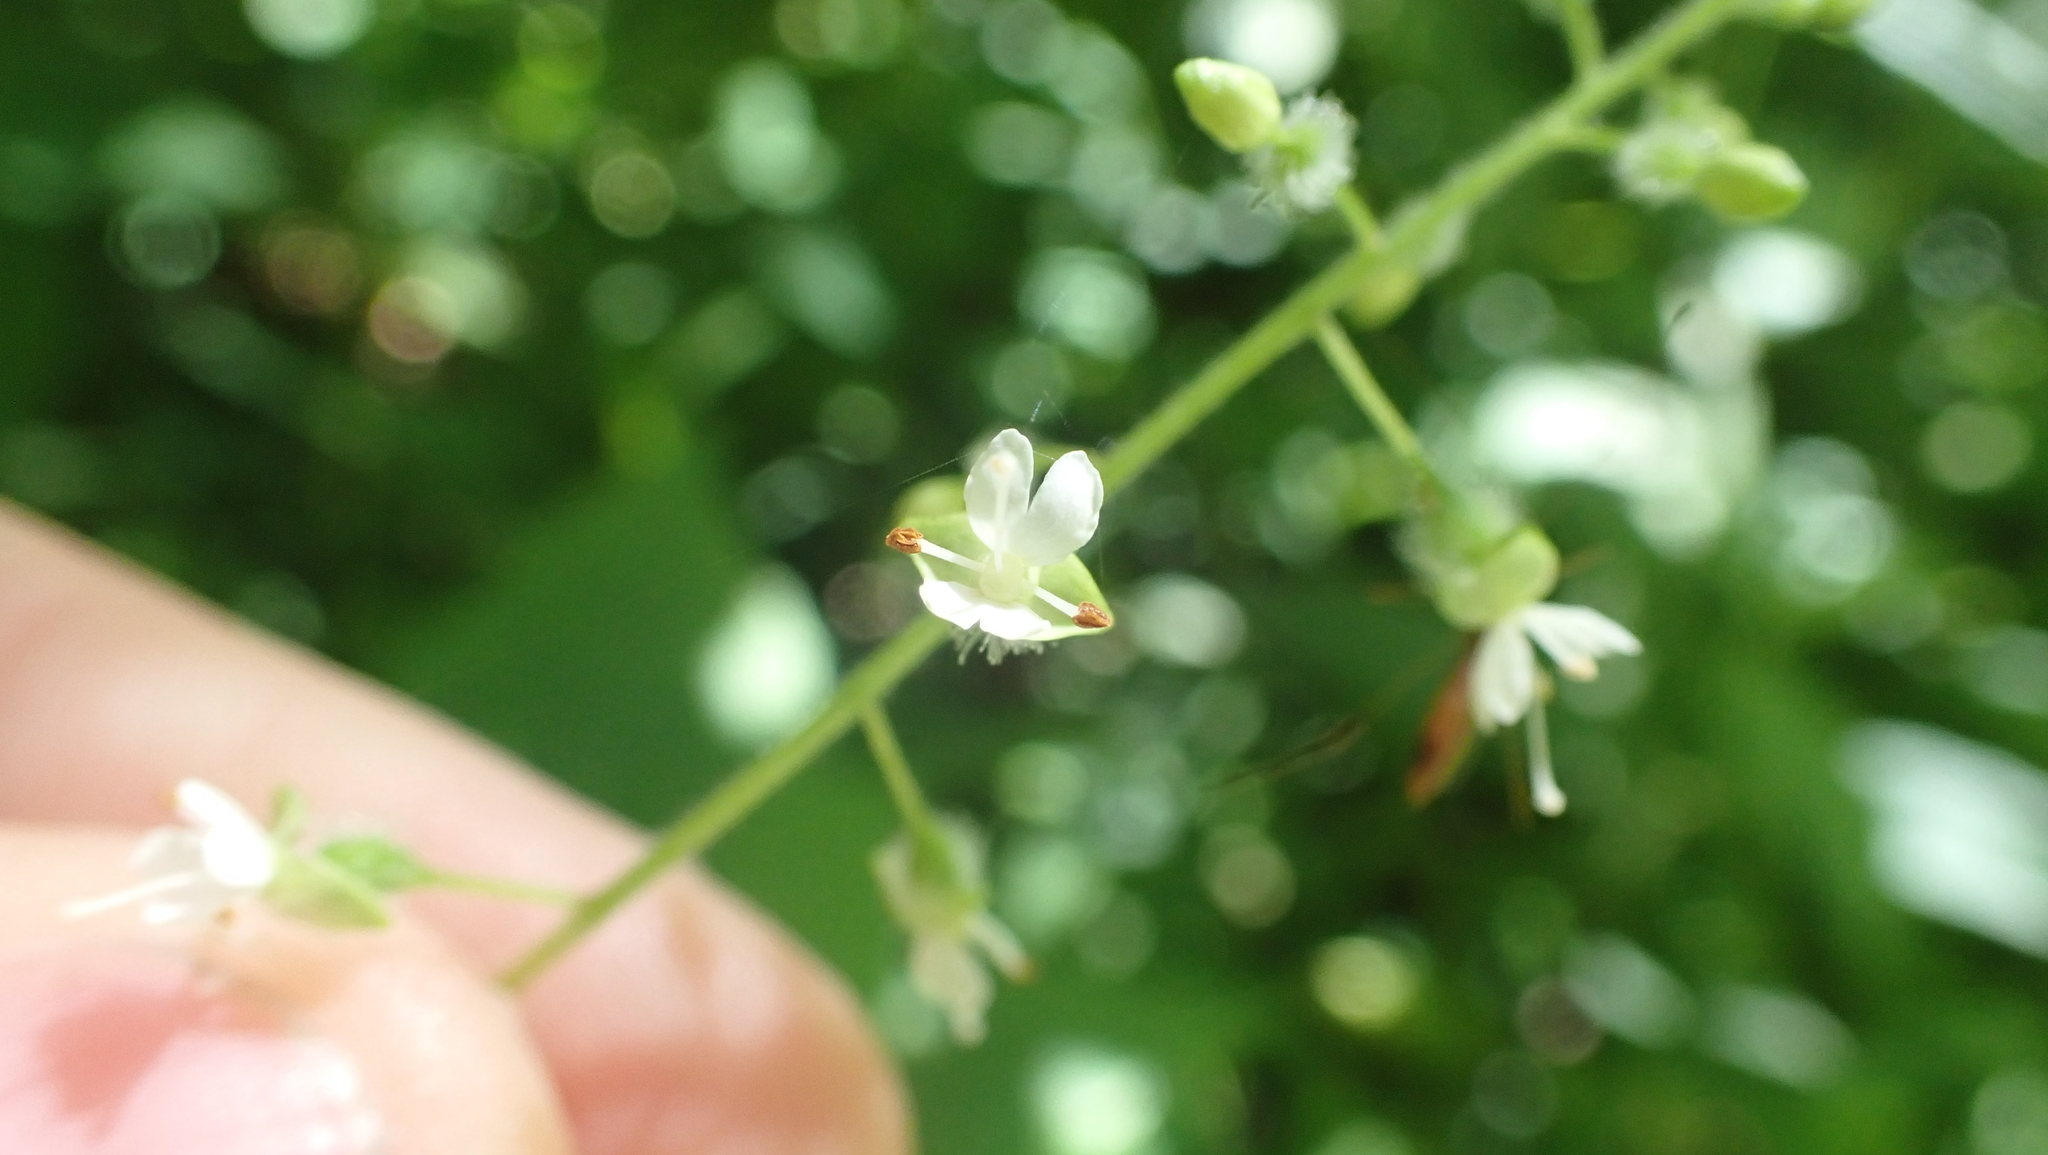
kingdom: Plantae
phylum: Tracheophyta
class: Magnoliopsida
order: Myrtales
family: Onagraceae
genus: Circaea
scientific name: Circaea canadensis
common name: Broad-leaved enchanter's nightshade
